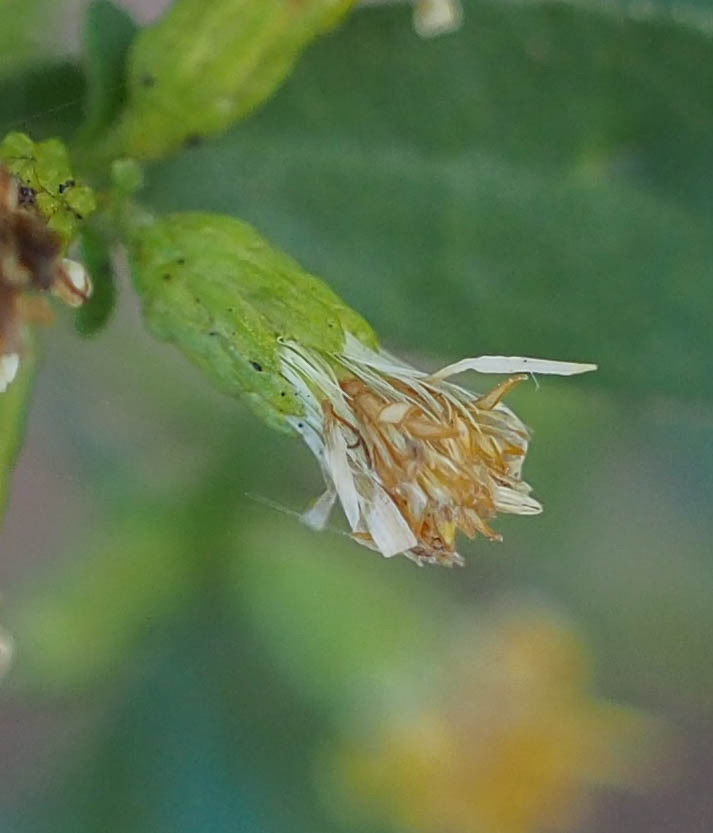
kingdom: Plantae
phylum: Tracheophyta
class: Magnoliopsida
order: Asterales
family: Asteraceae
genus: Solidago
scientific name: Solidago erecta
